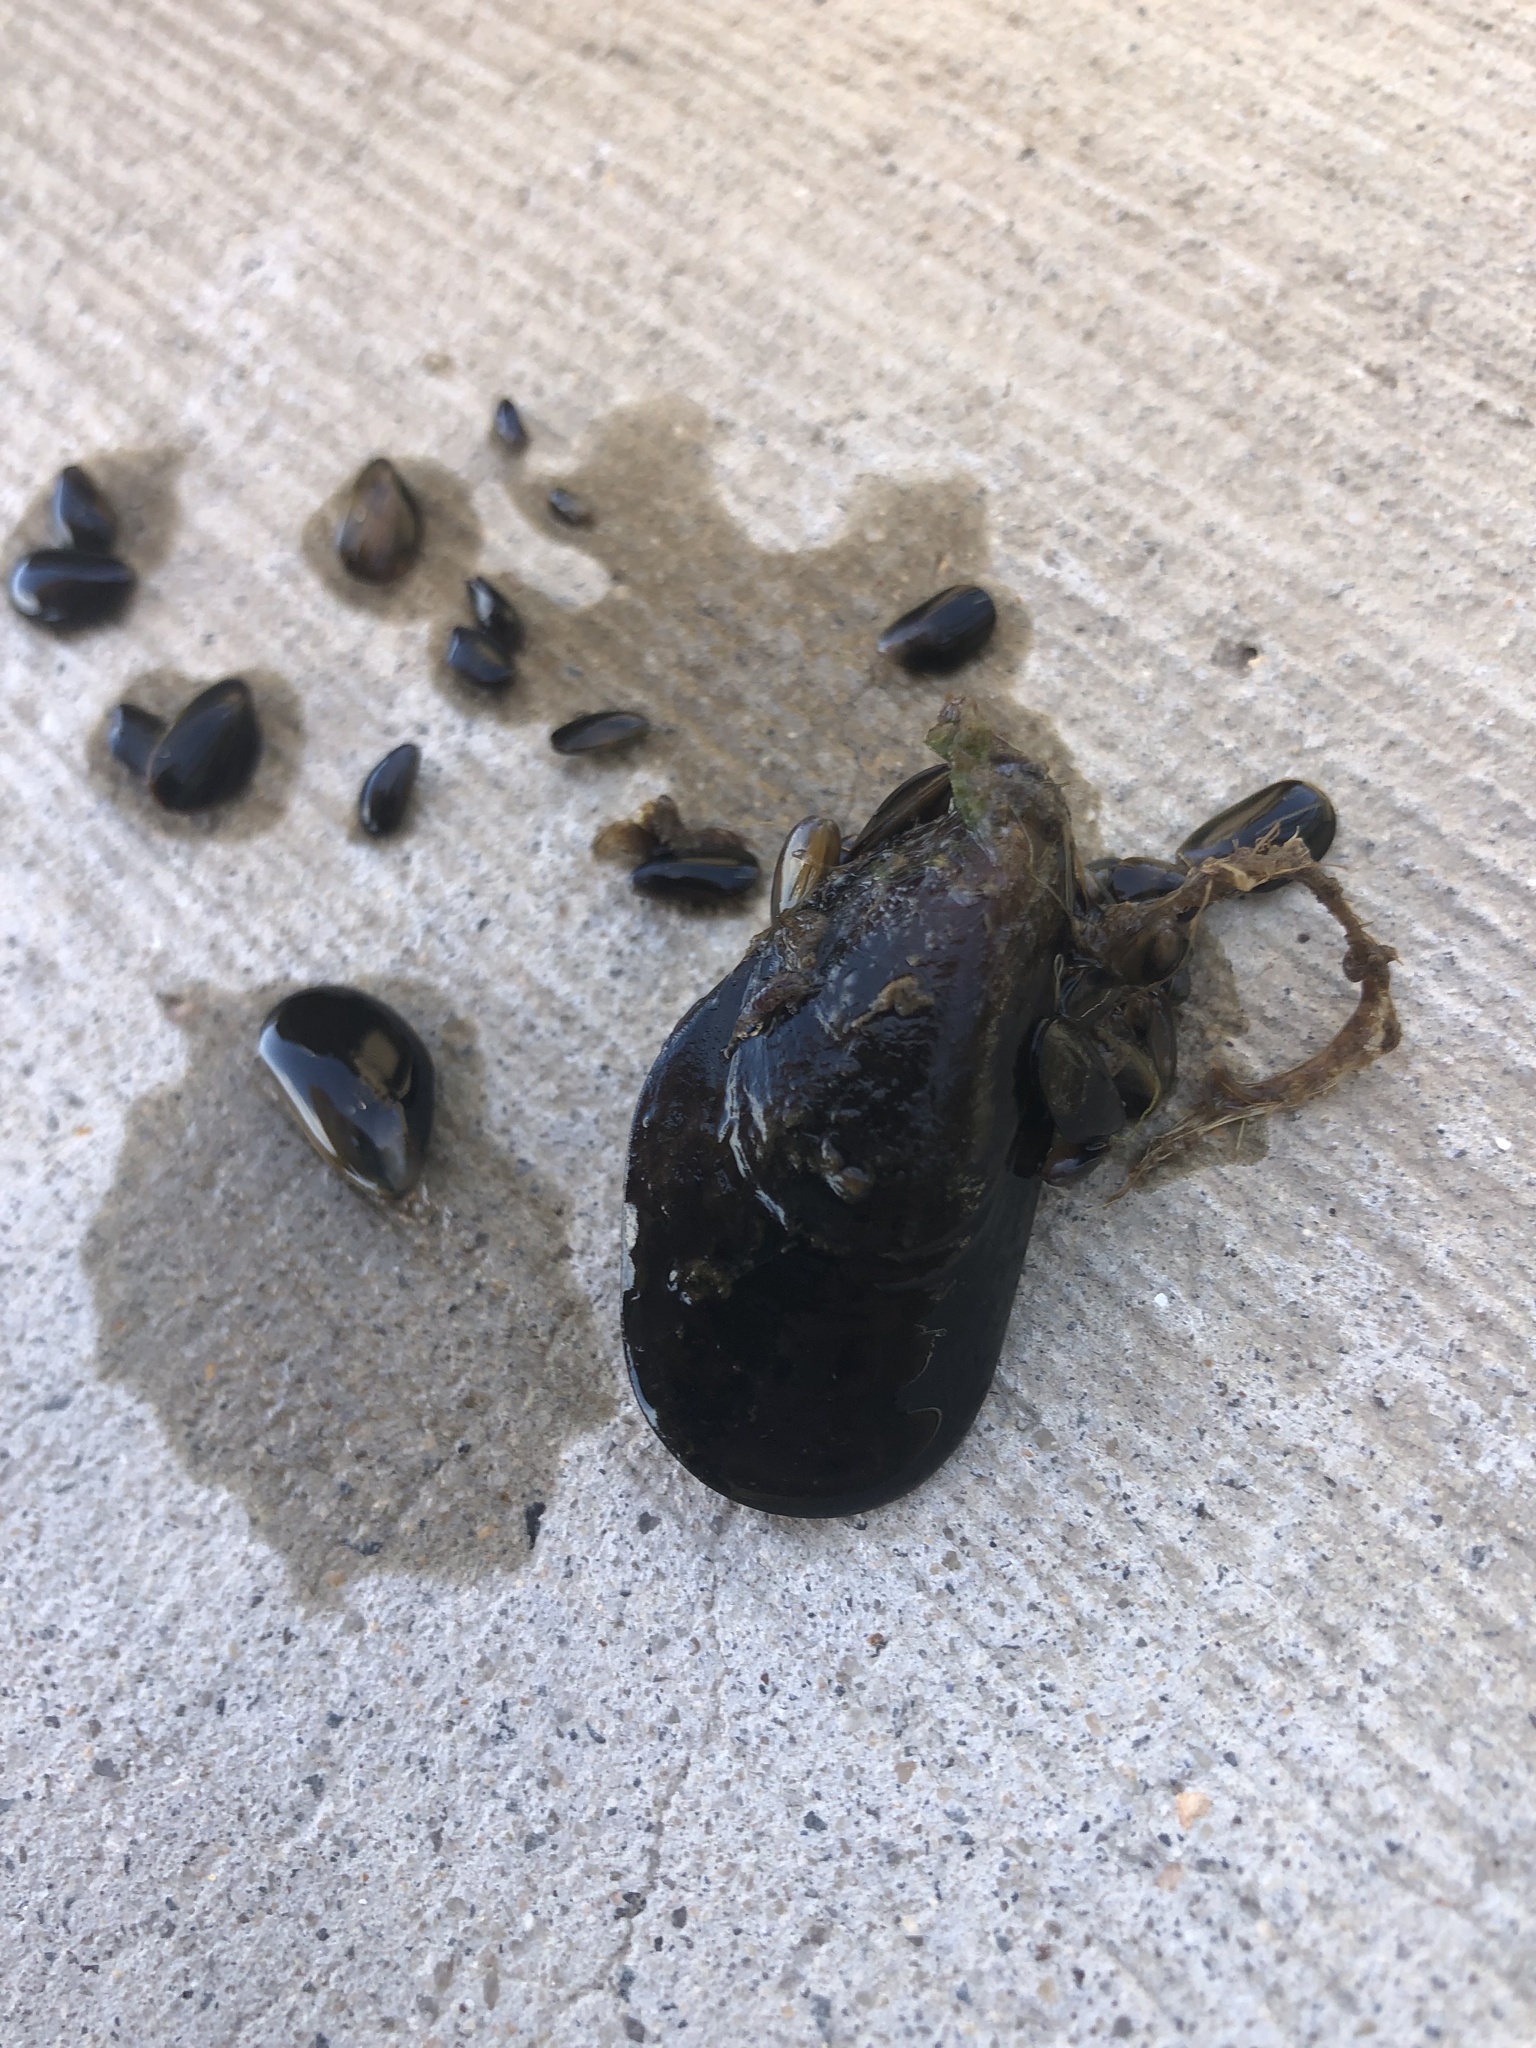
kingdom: Animalia
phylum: Mollusca
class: Bivalvia
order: Mytilida
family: Mytilidae
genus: Mytilus
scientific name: Mytilus edulis
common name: Blue mussel
